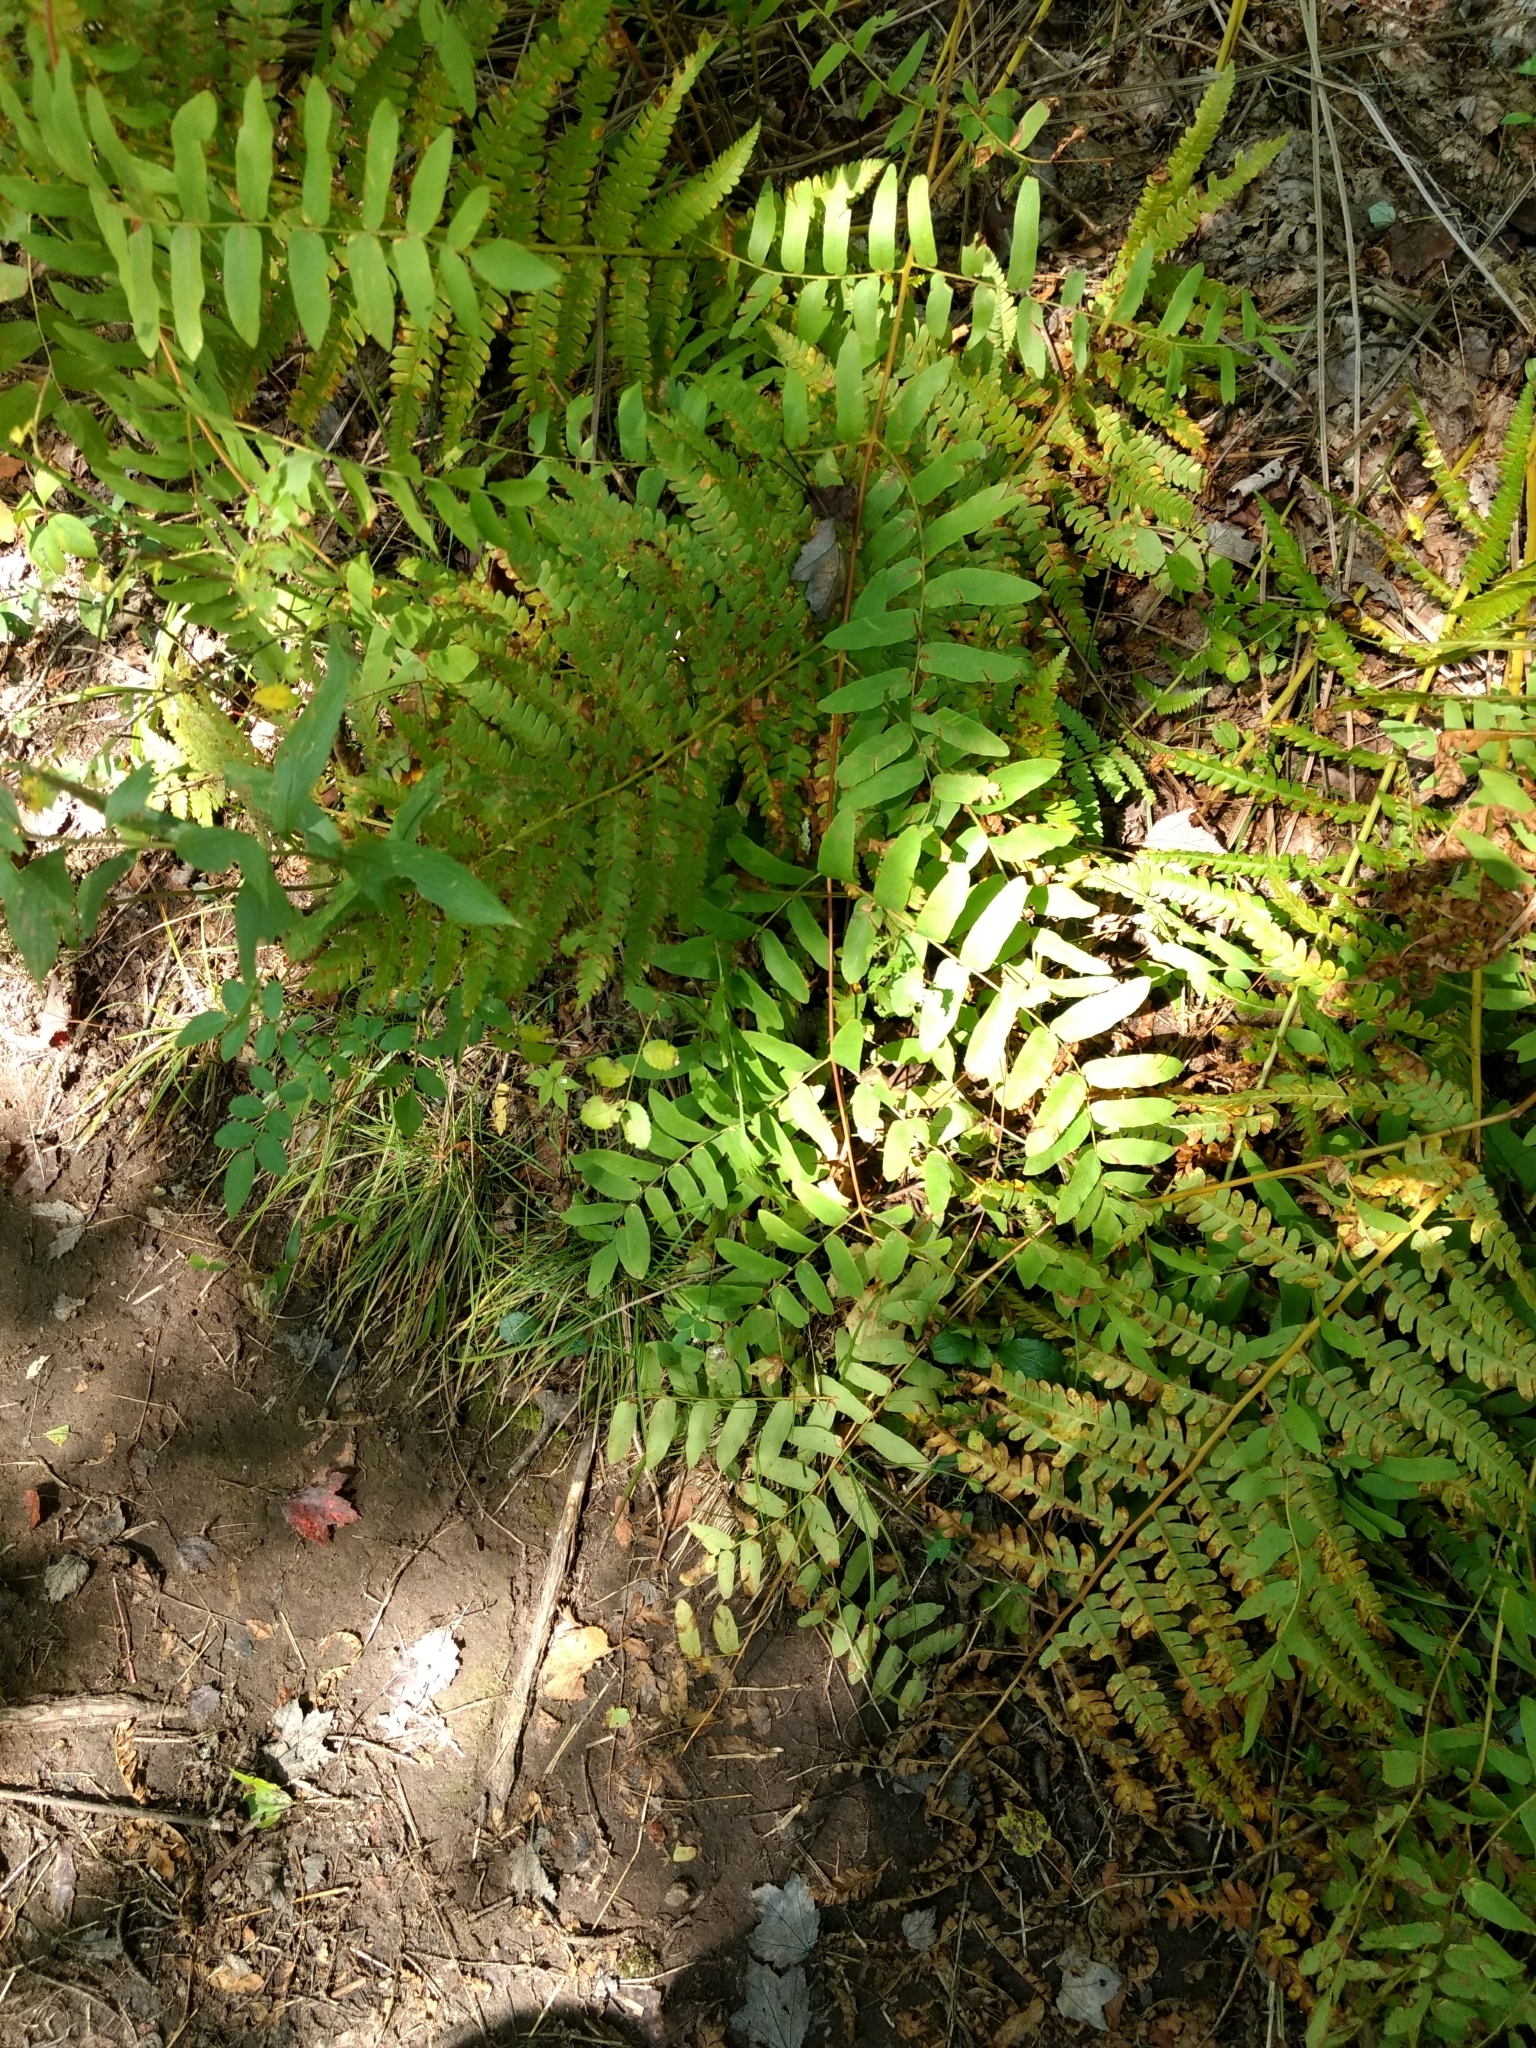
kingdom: Plantae
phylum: Tracheophyta
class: Polypodiopsida
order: Osmundales
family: Osmundaceae
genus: Osmunda
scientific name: Osmunda spectabilis
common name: American royal fern
